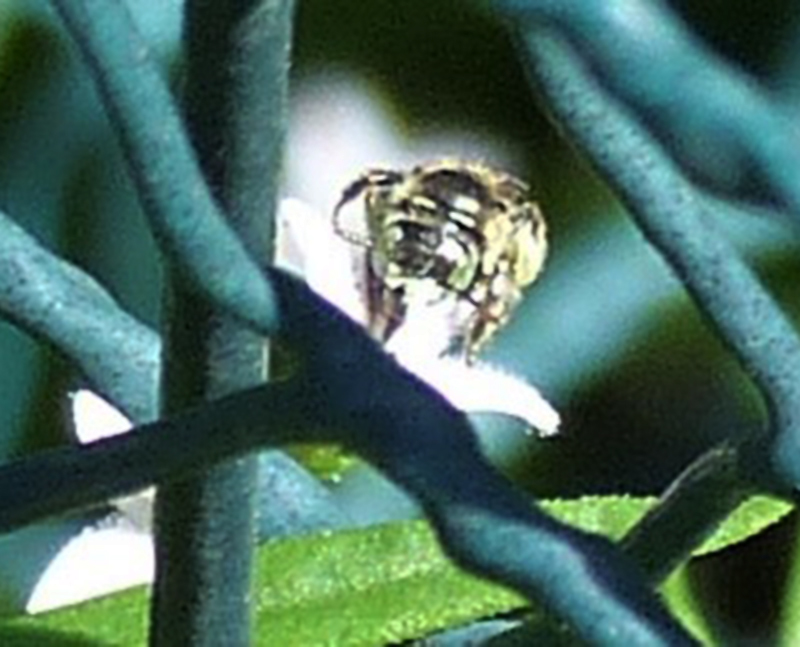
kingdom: Animalia
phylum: Arthropoda
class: Insecta
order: Hymenoptera
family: Andrenidae
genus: Calliopsis
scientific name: Calliopsis andreniformis
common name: Eastern calliopsis bee
